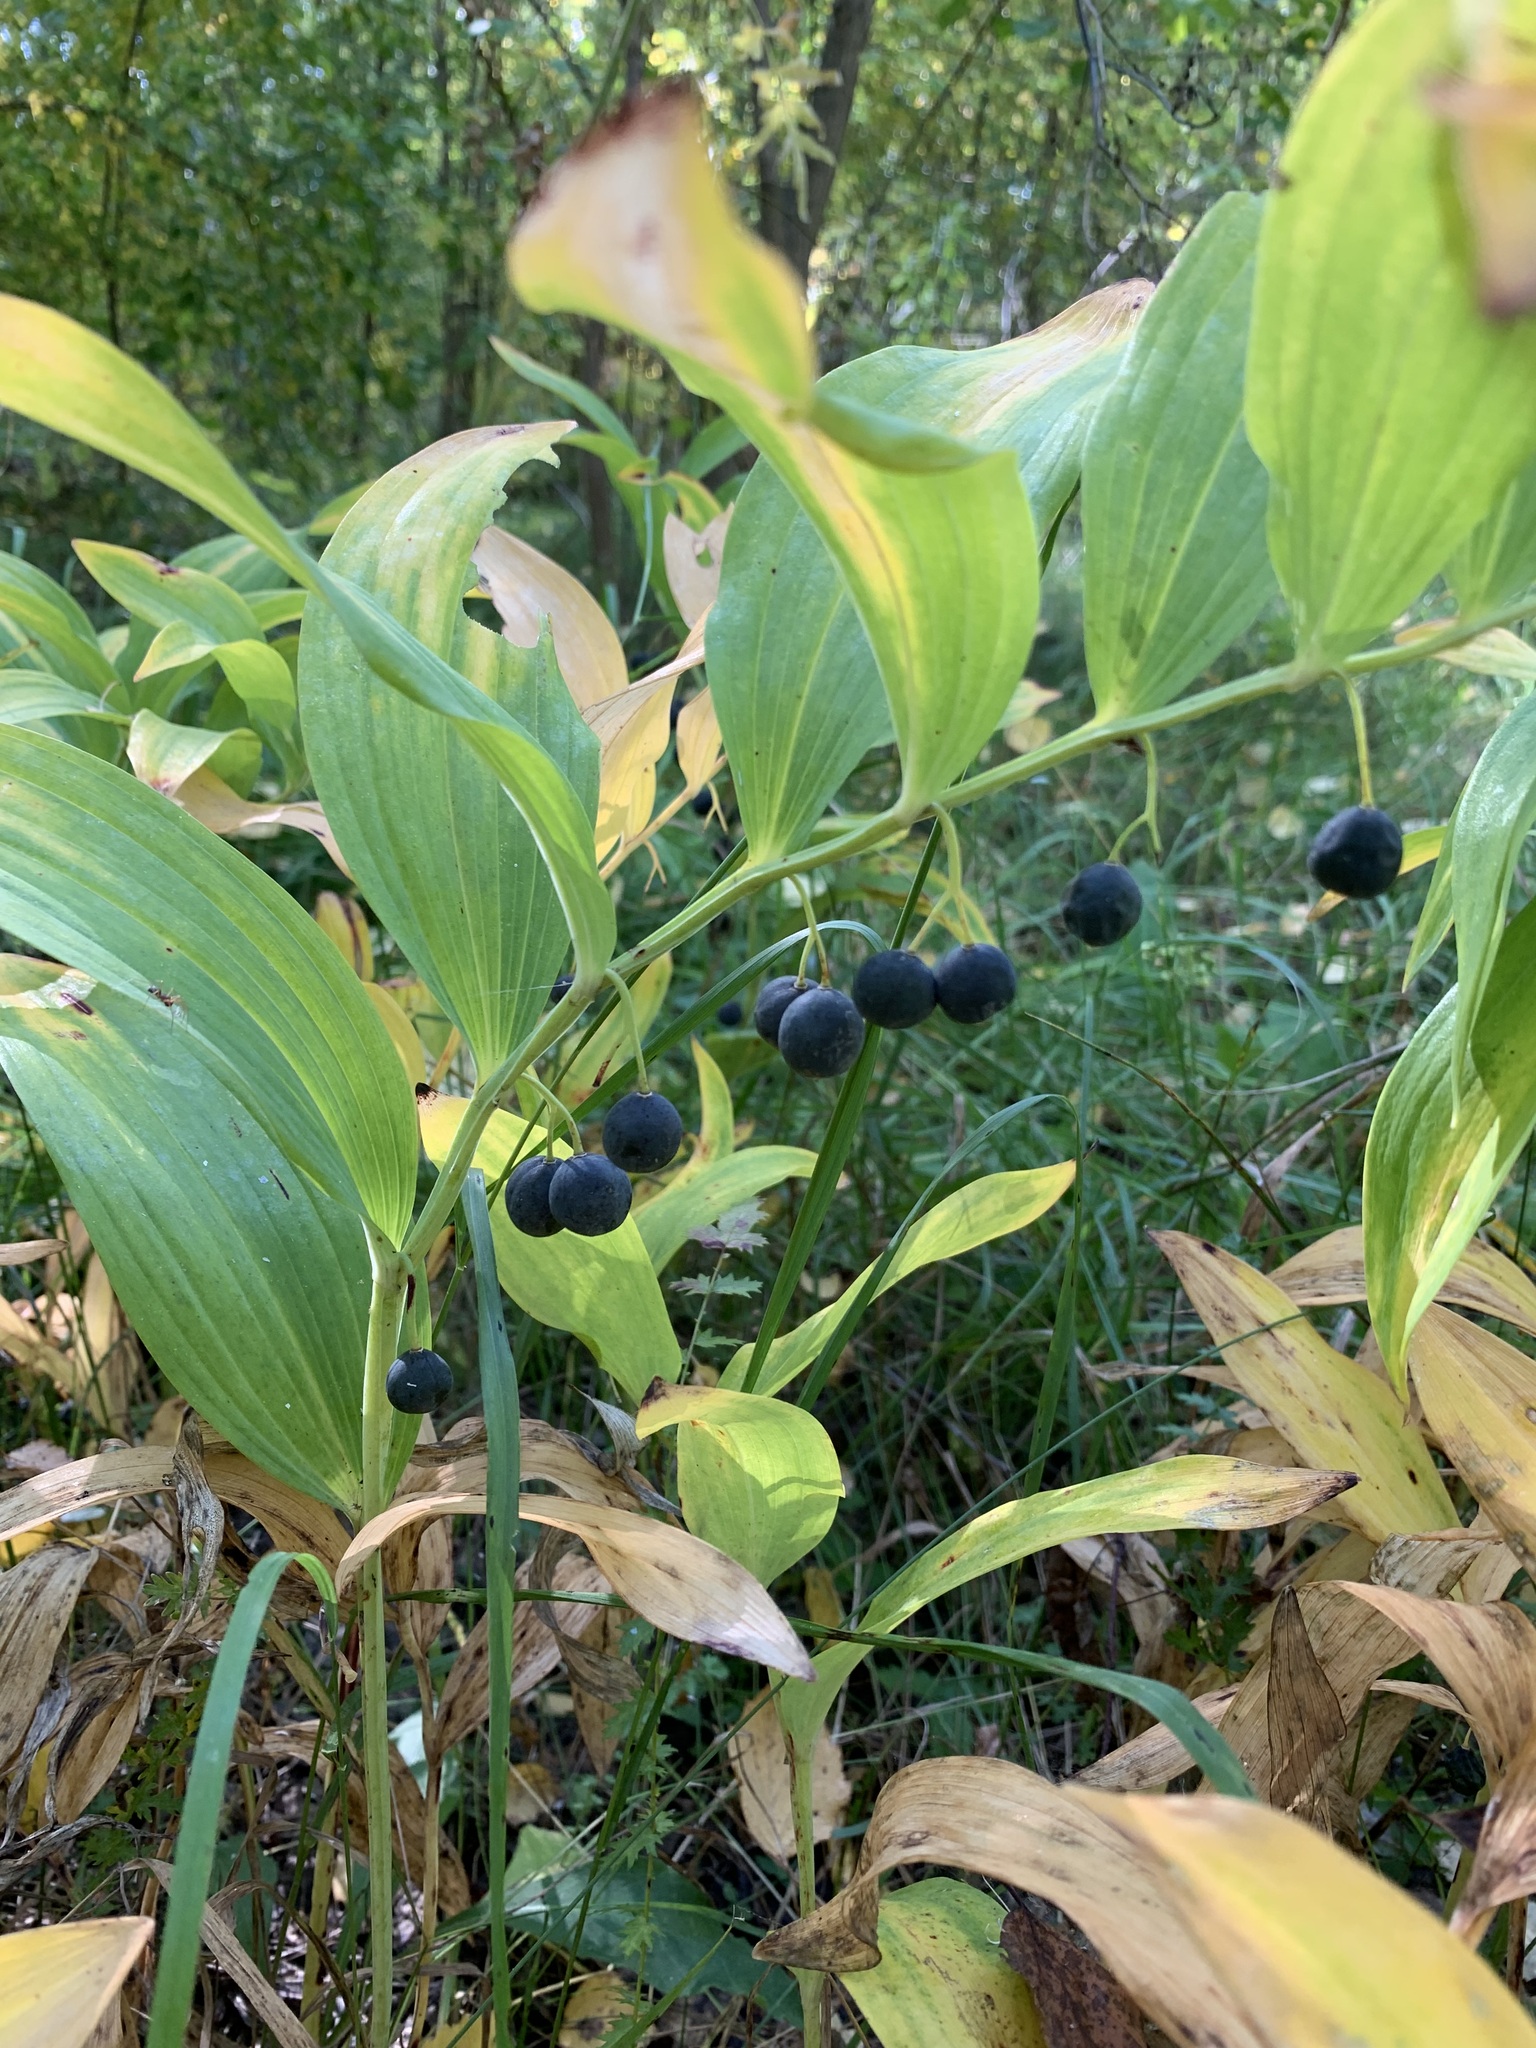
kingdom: Plantae
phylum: Tracheophyta
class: Liliopsida
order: Asparagales
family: Asparagaceae
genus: Polygonatum
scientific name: Polygonatum odoratum
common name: Angular solomon's-seal
